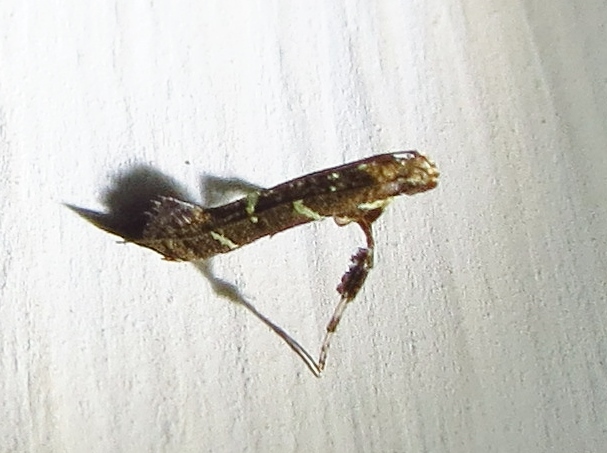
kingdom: Animalia
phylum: Arthropoda
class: Insecta
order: Lepidoptera
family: Gracillariidae
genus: Caloptilia
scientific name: Caloptilia triadicae
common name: Tallow leaf roller
